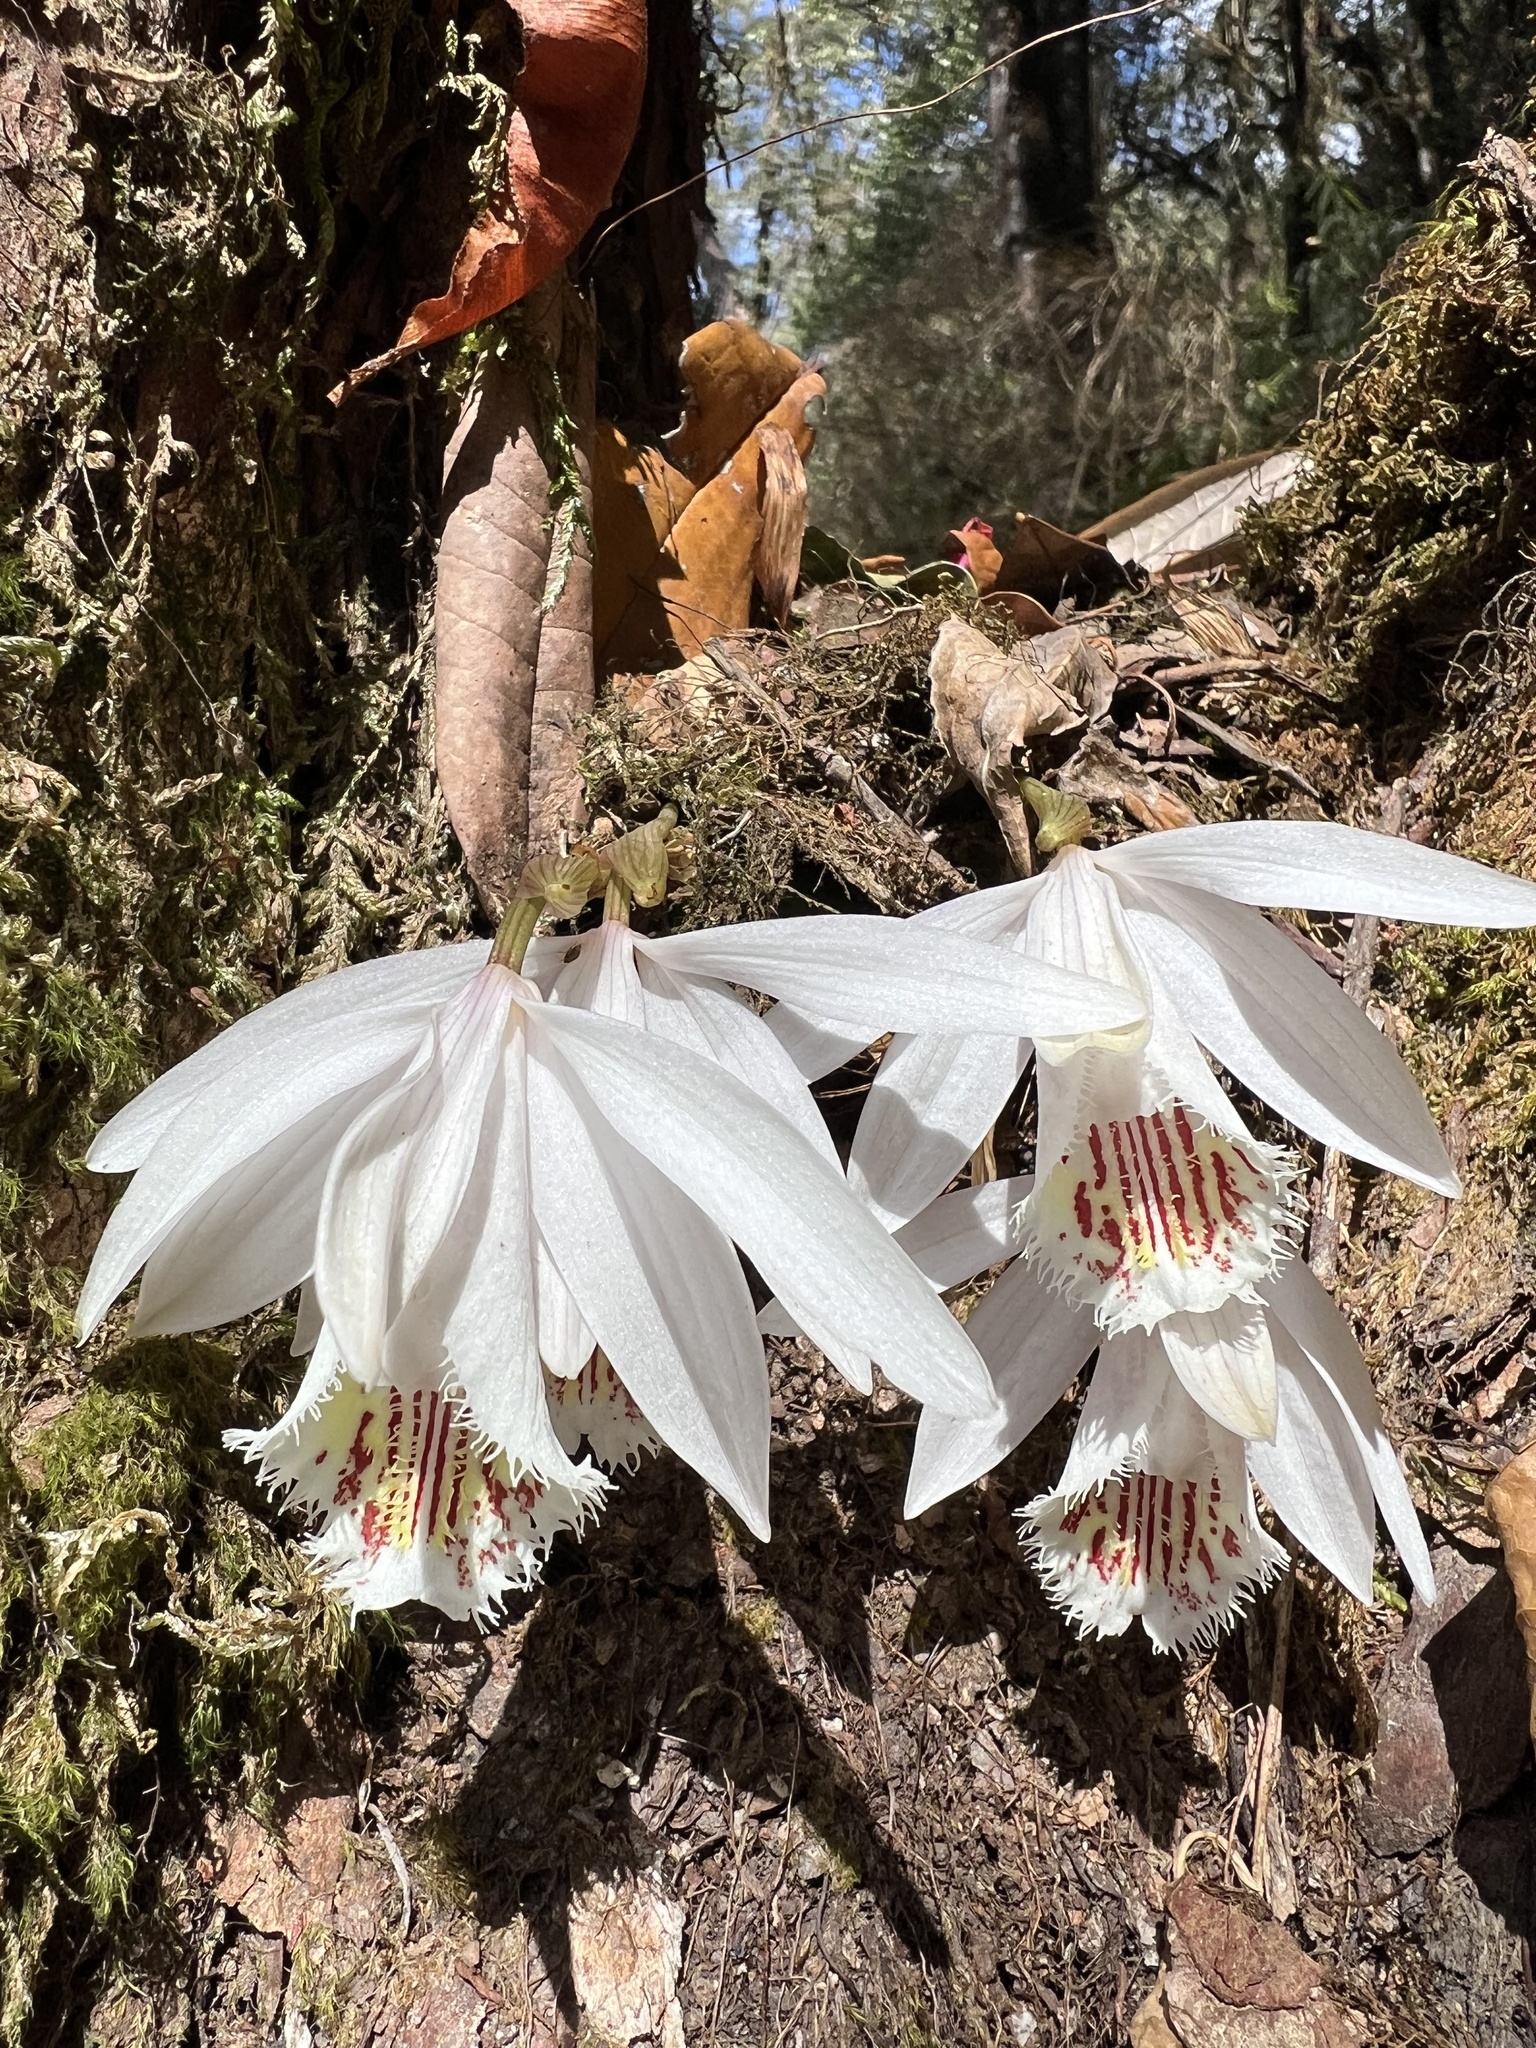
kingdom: Plantae
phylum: Tracheophyta
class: Liliopsida
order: Asparagales
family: Orchidaceae
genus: Pleione
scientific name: Pleione humilis
